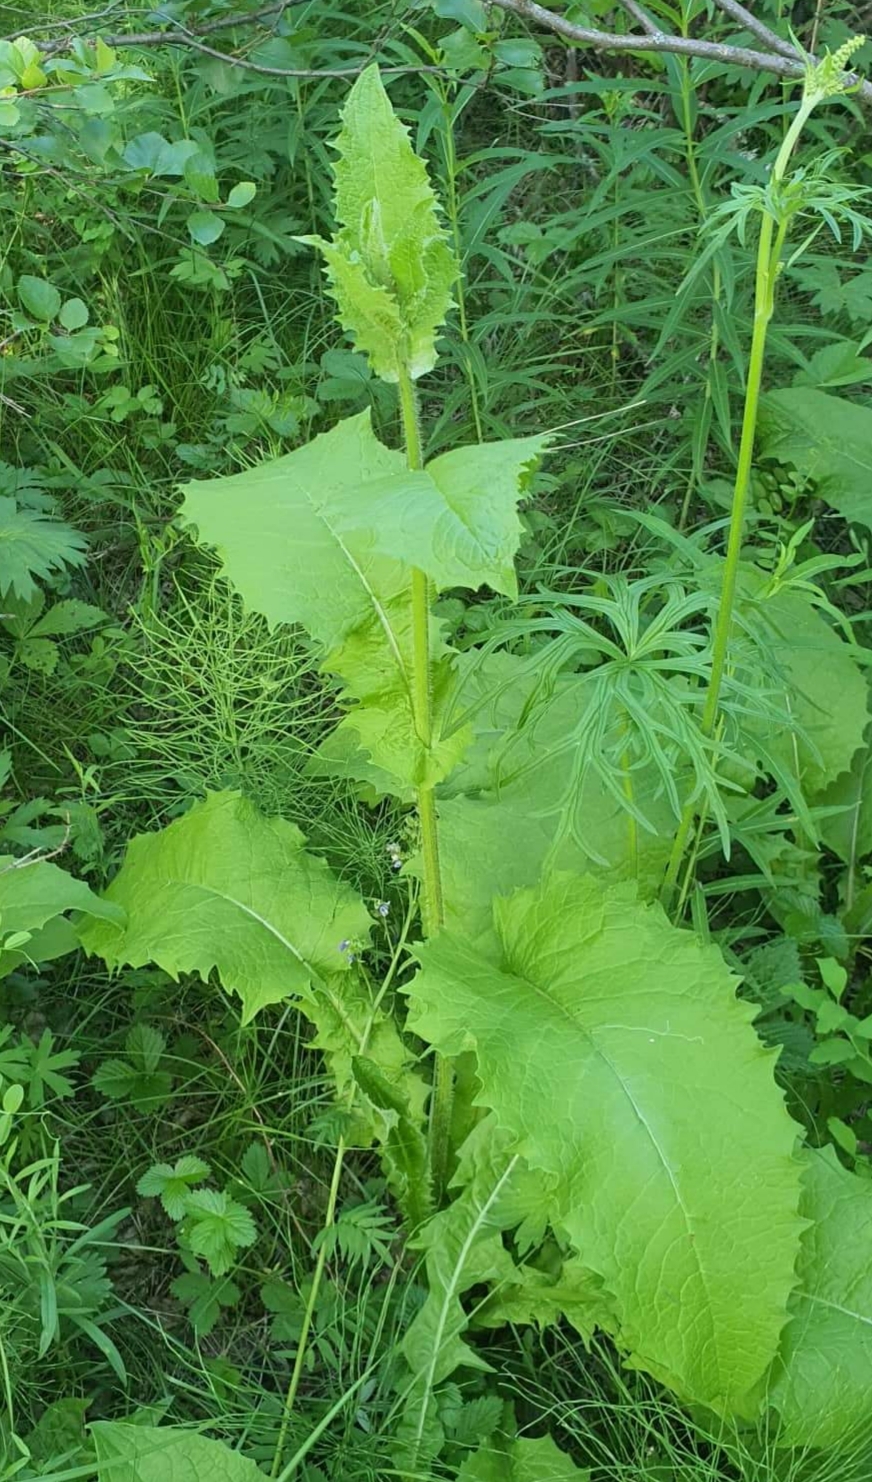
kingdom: Plantae
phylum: Tracheophyta
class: Magnoliopsida
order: Asterales
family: Asteraceae
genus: Crepis
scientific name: Crepis sibirica
